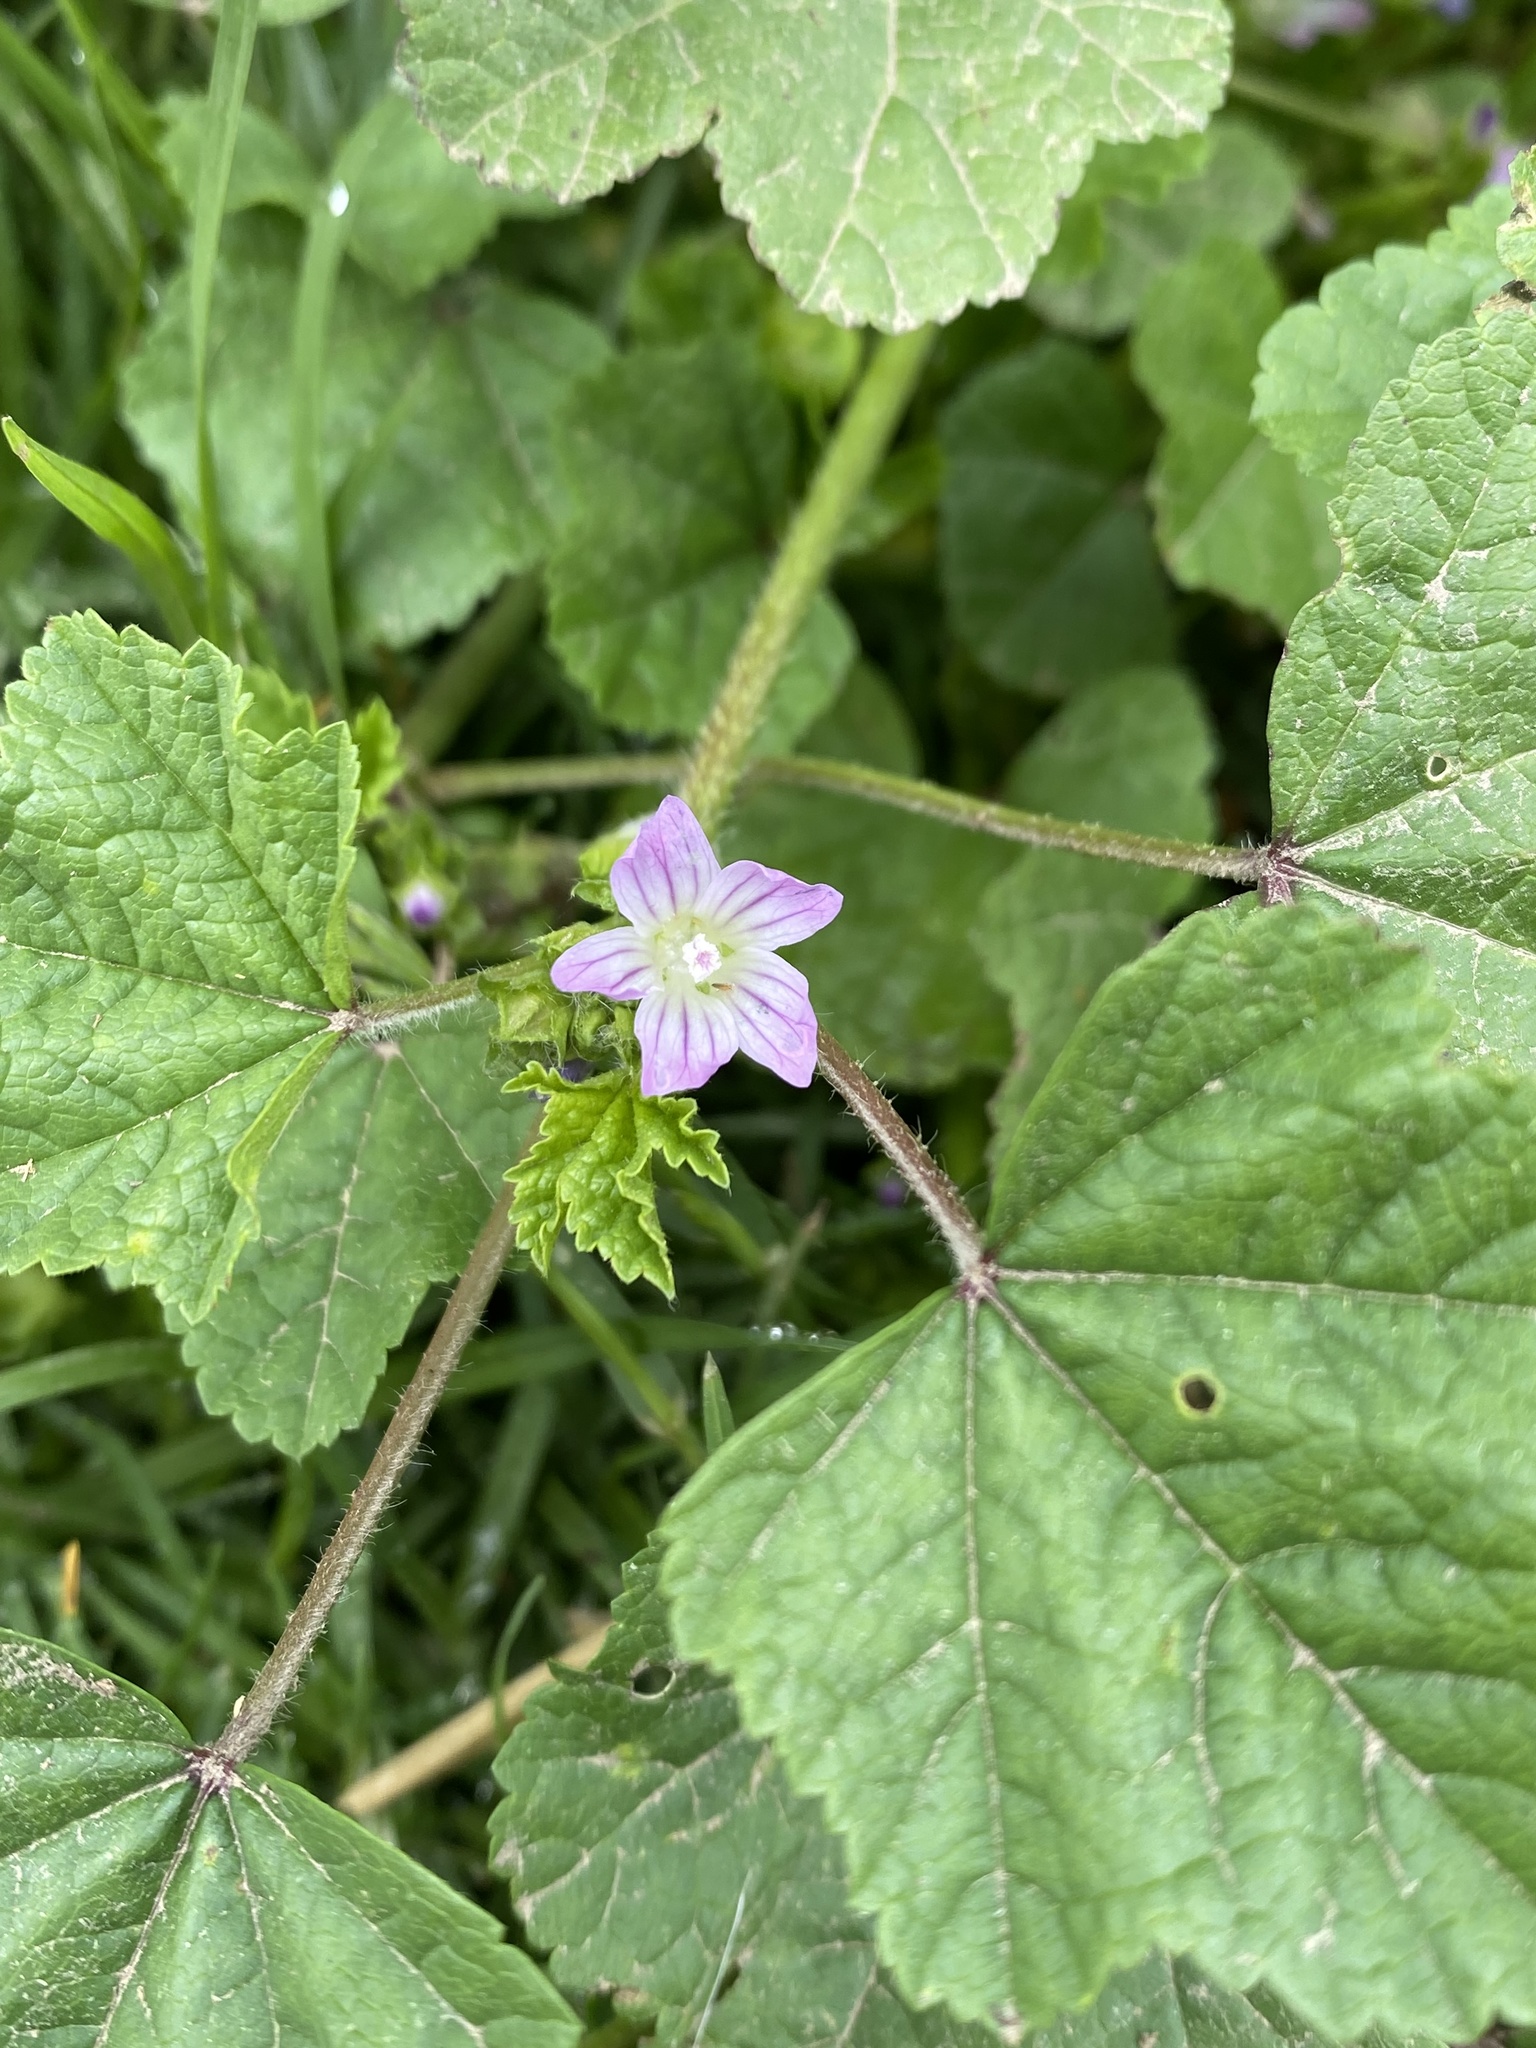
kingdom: Plantae
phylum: Tracheophyta
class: Magnoliopsida
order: Malvales
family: Malvaceae
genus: Malva
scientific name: Malva nicaeensis
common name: French mallow
